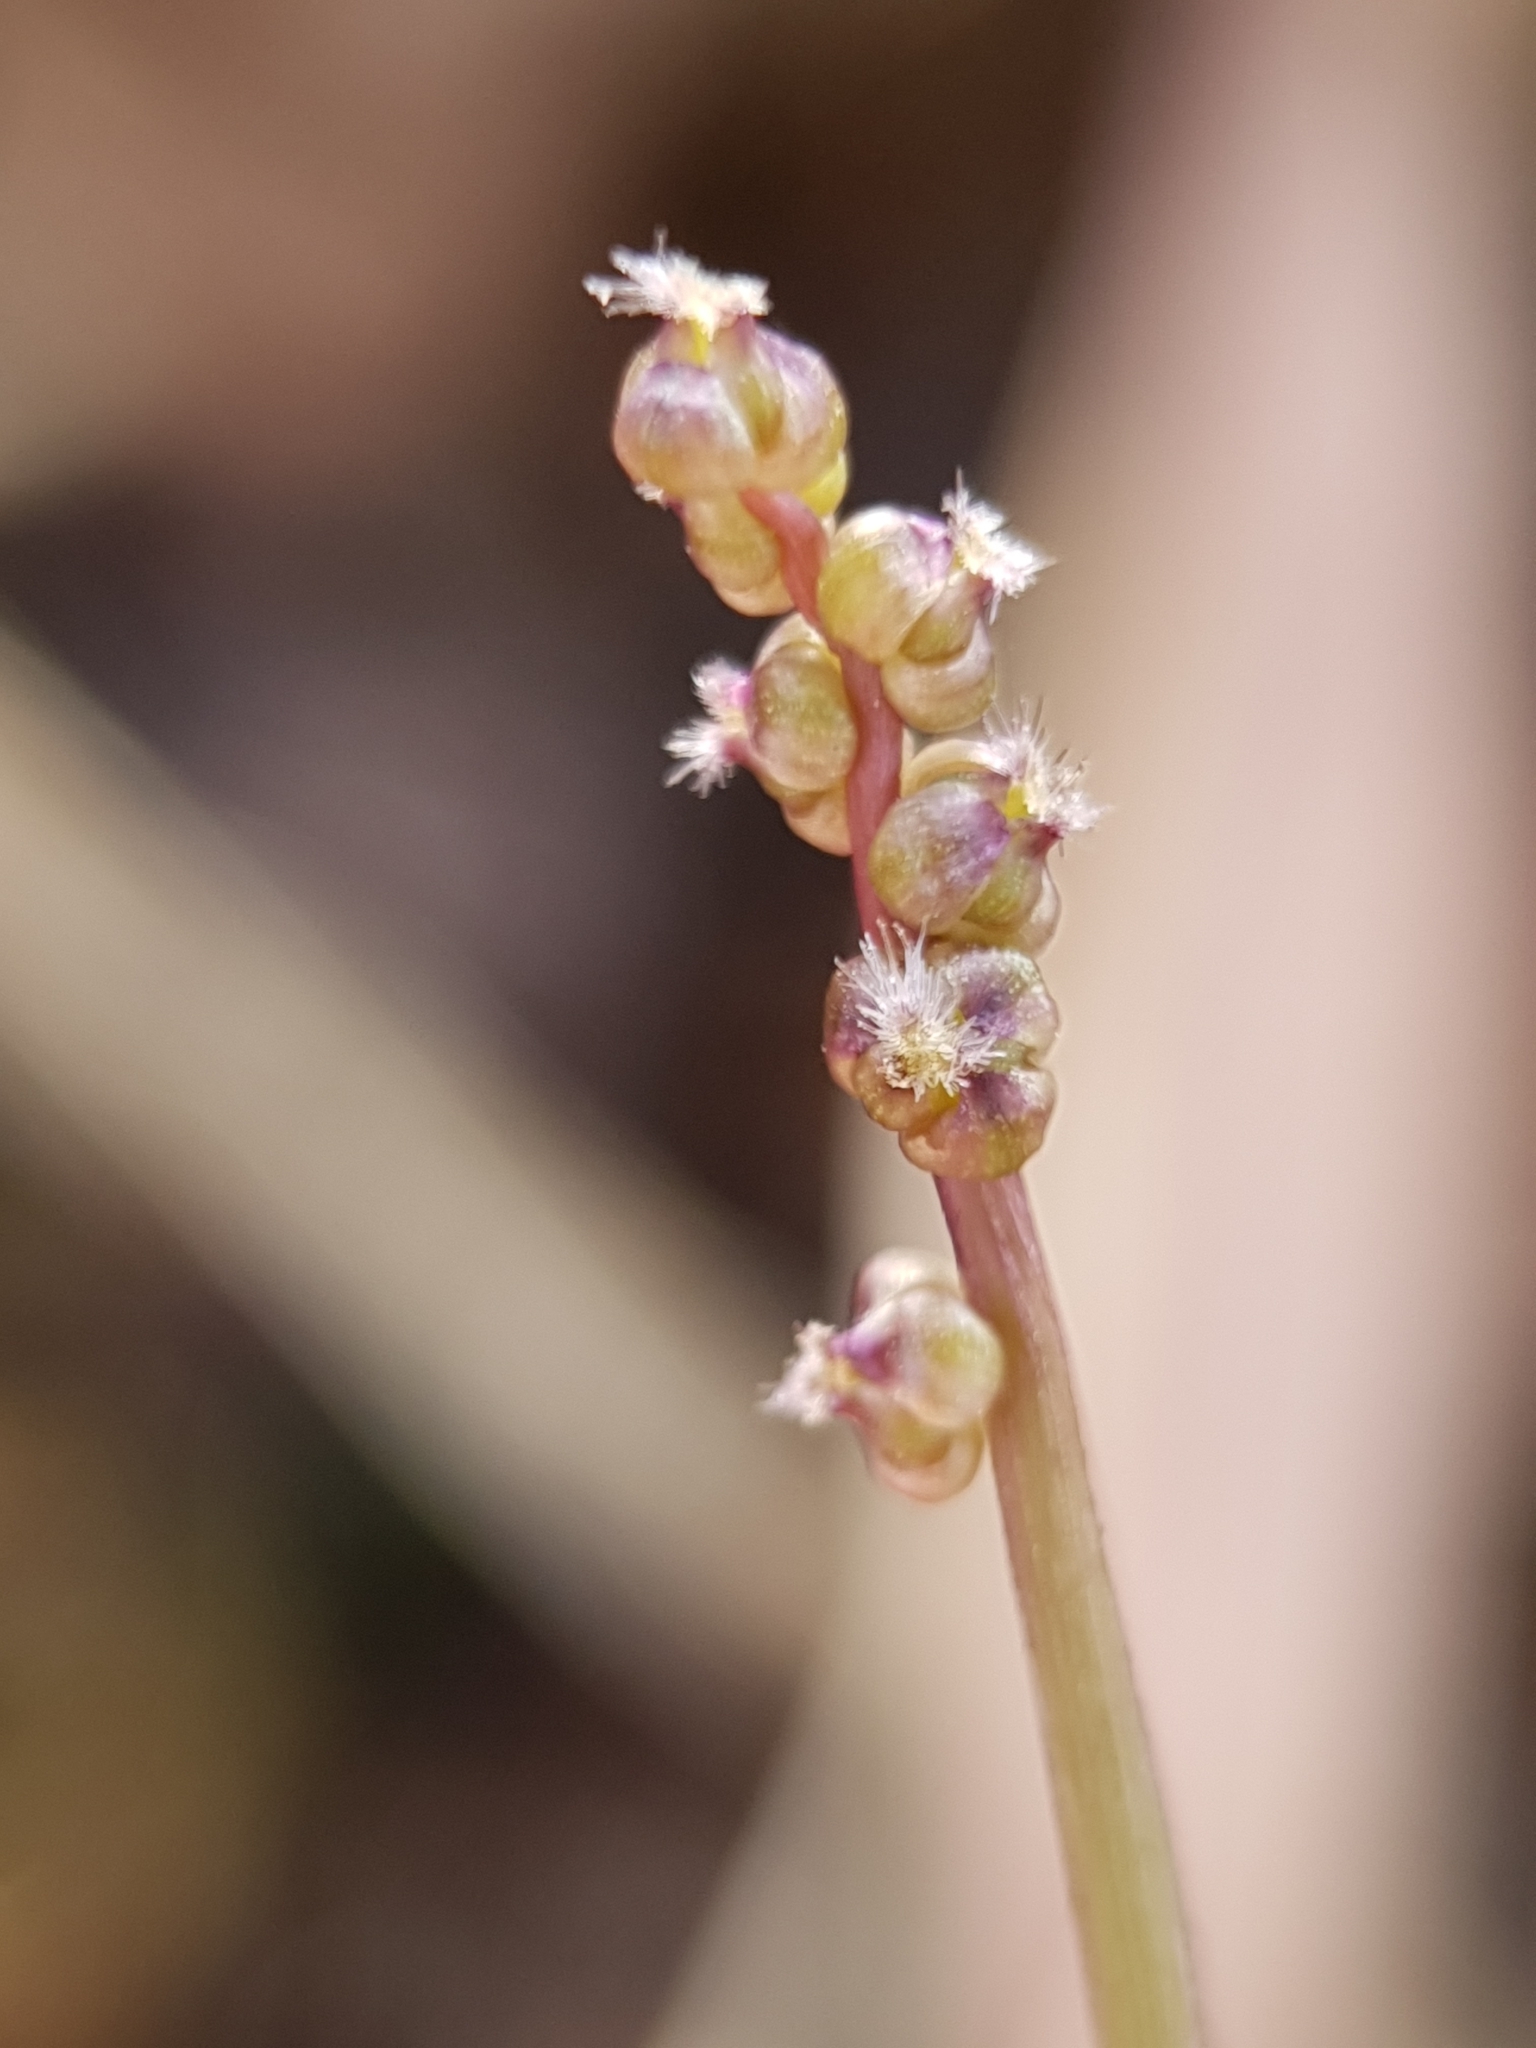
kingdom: Plantae
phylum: Tracheophyta
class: Liliopsida
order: Alismatales
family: Juncaginaceae
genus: Triglochin
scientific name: Triglochin laxiflora
